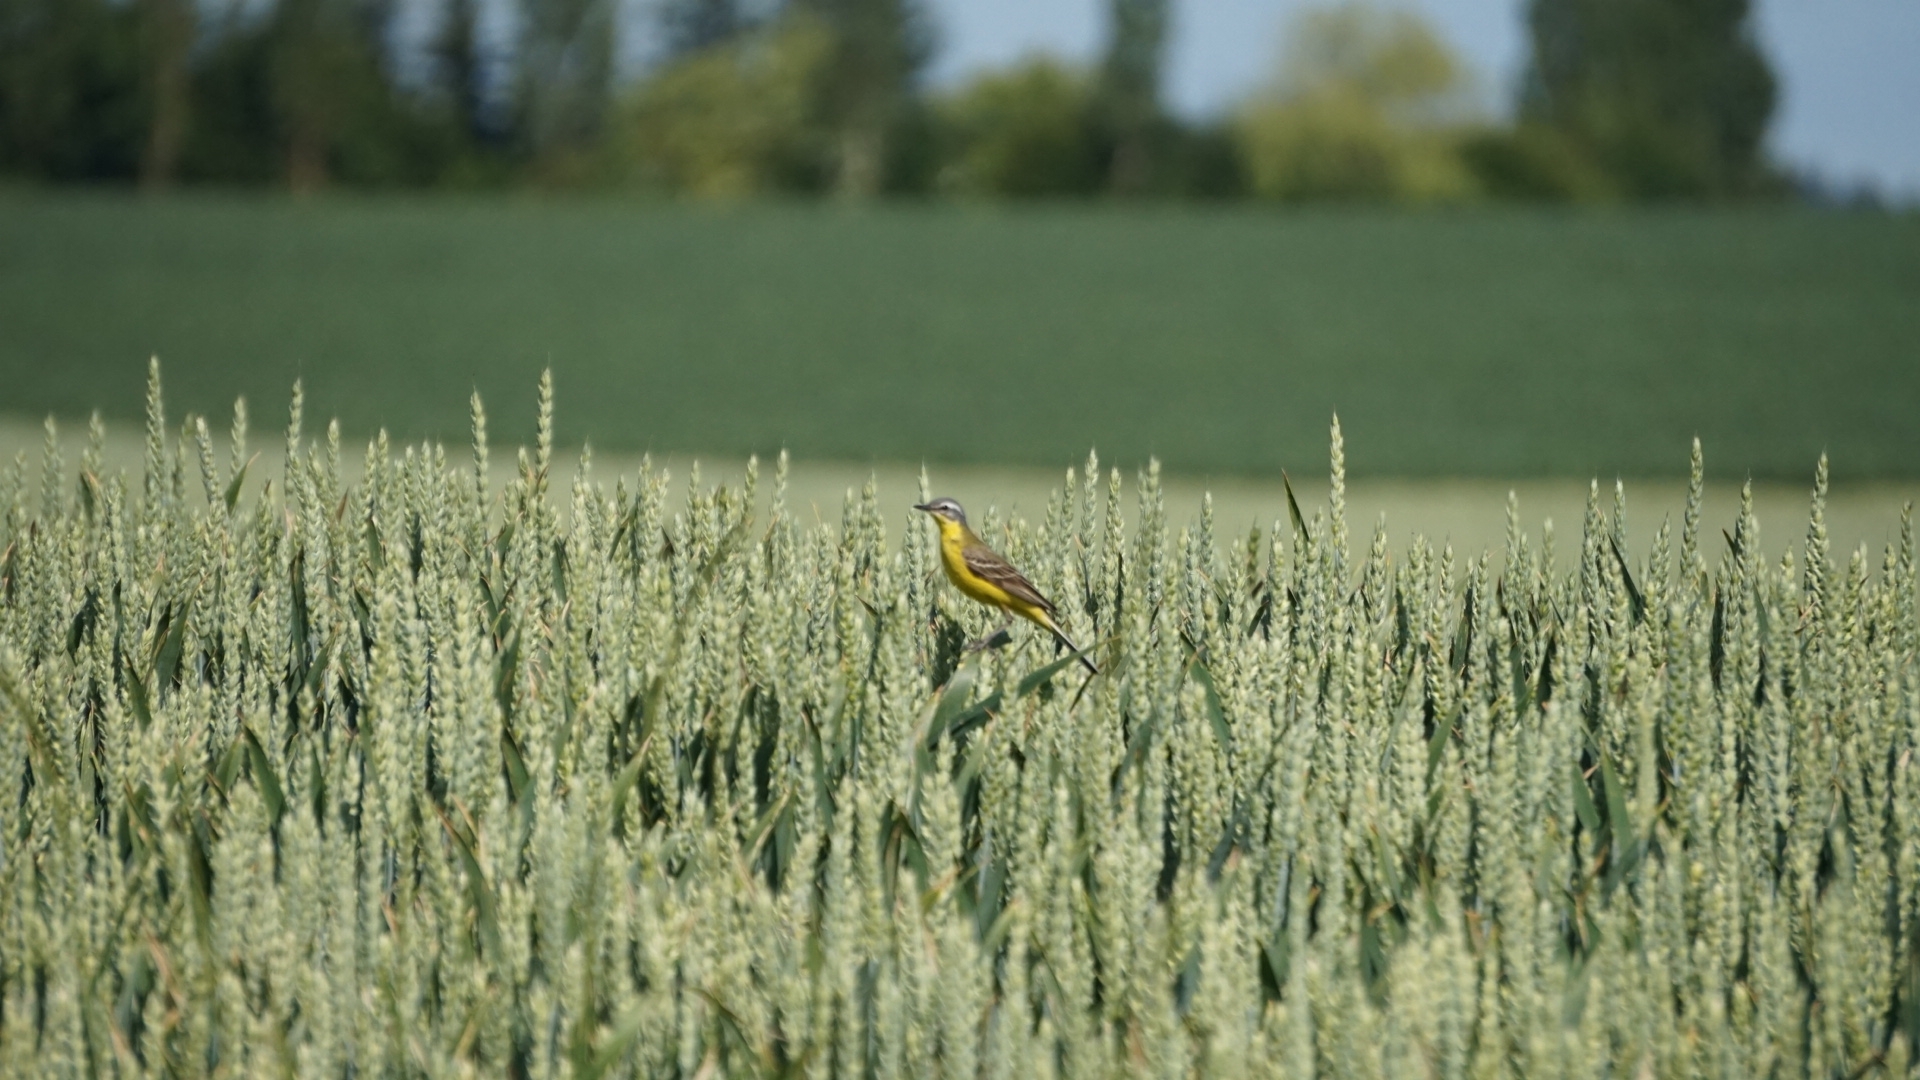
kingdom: Animalia
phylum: Chordata
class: Aves
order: Passeriformes
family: Motacillidae
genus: Motacilla
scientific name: Motacilla flava
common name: Western yellow wagtail
